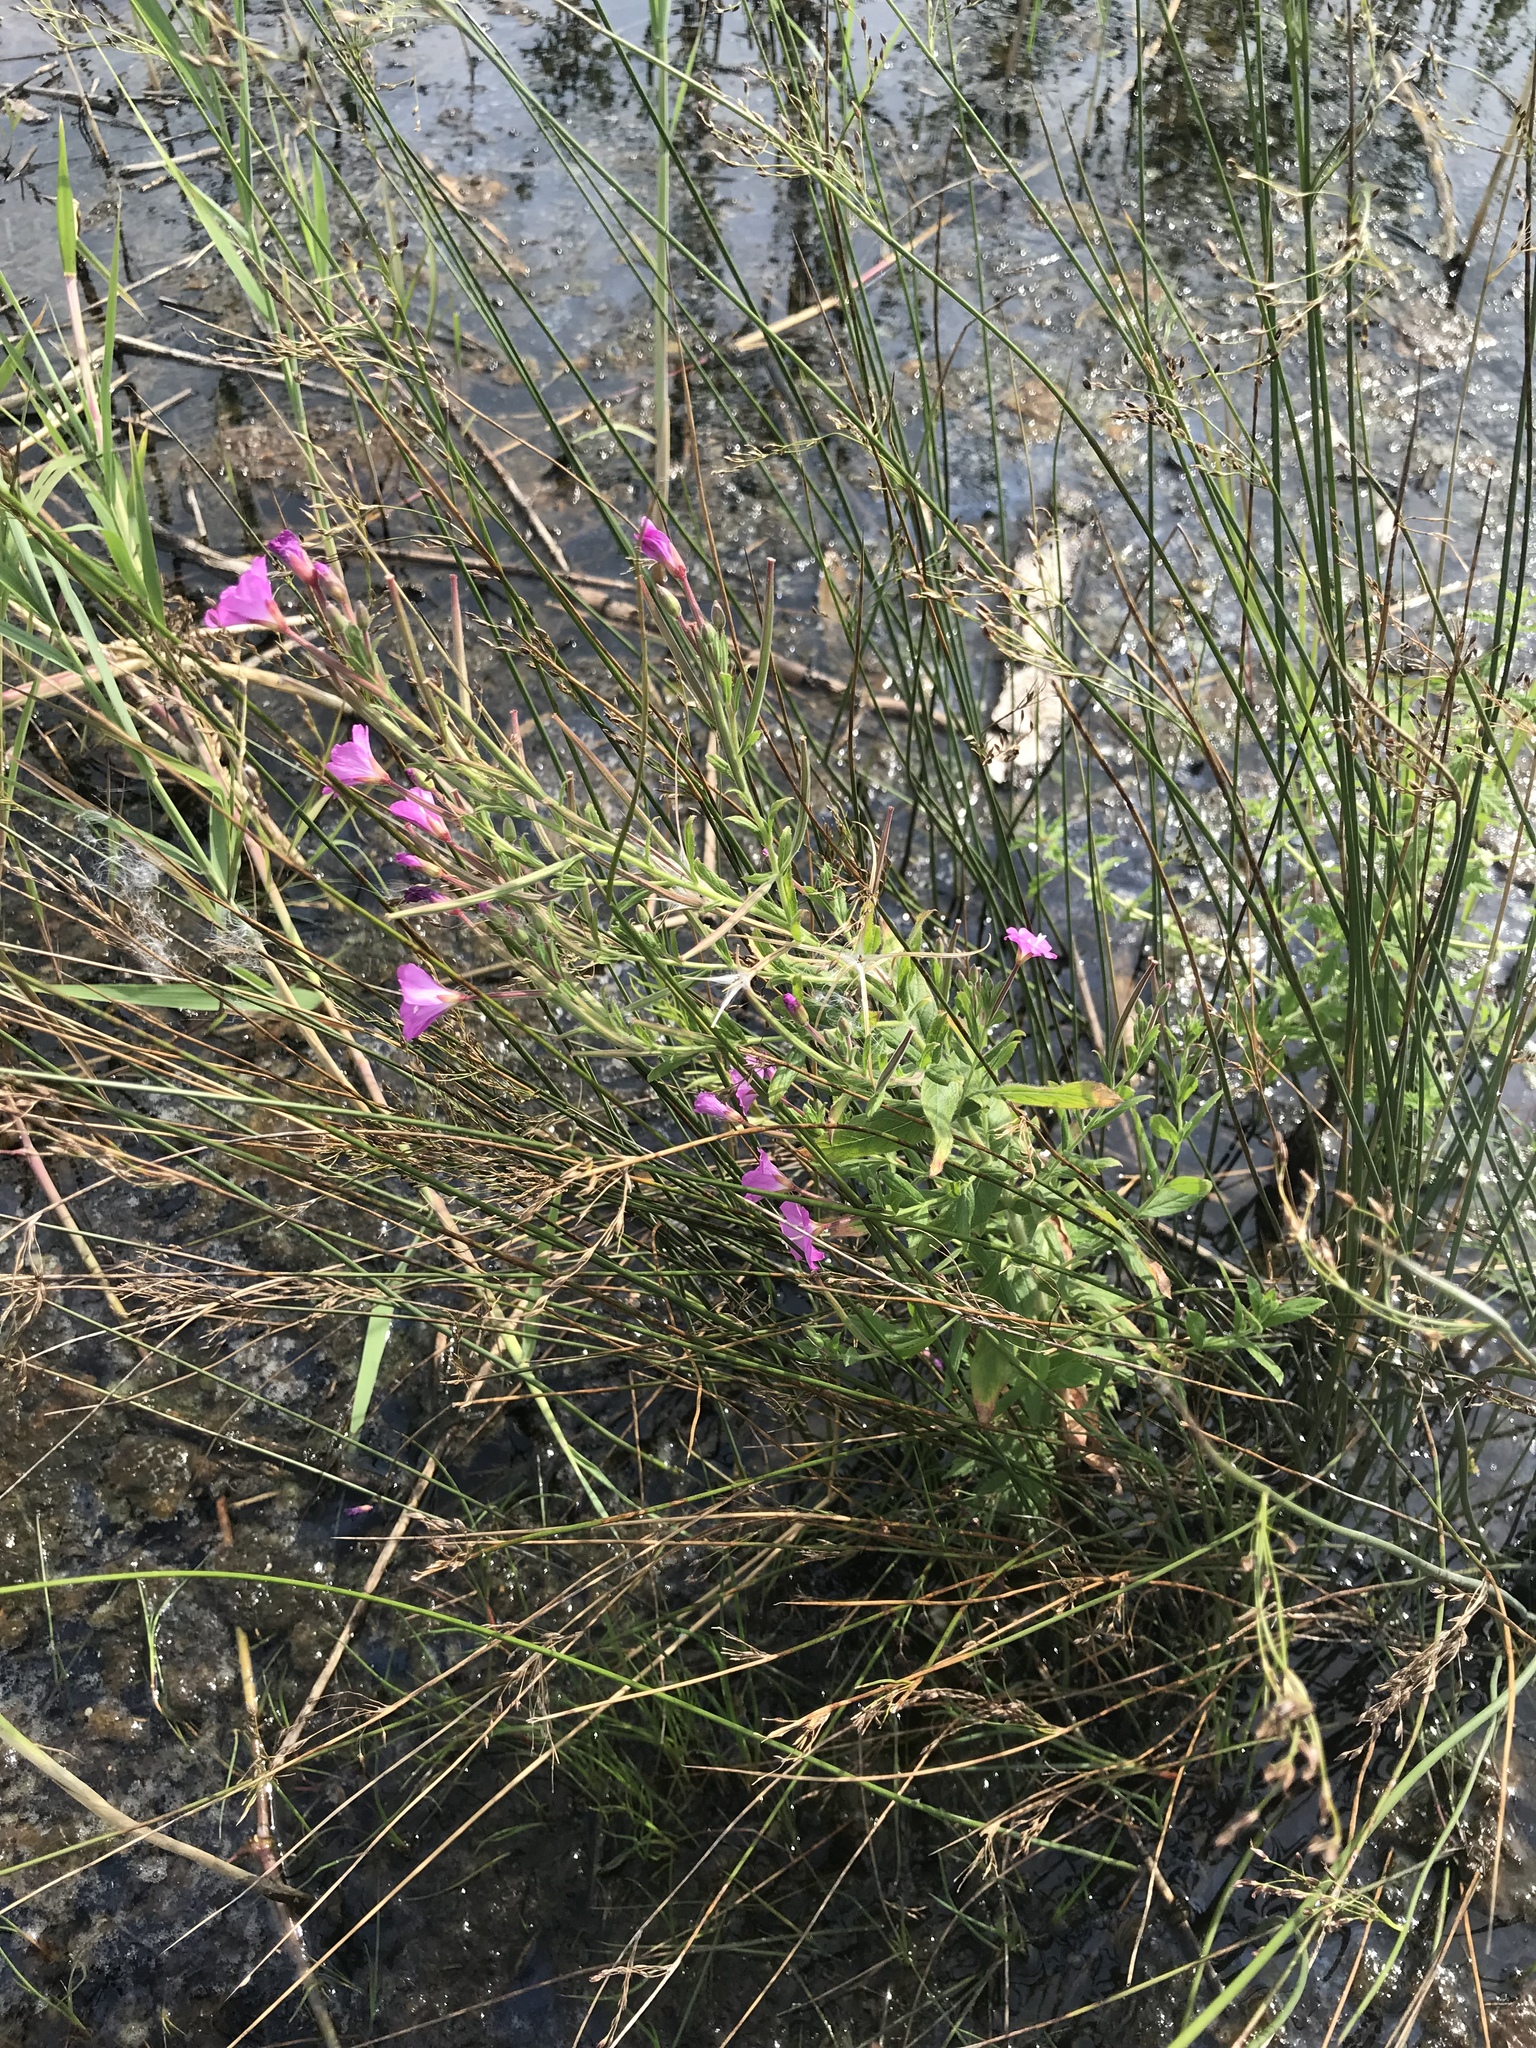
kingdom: Plantae
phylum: Tracheophyta
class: Magnoliopsida
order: Myrtales
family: Onagraceae
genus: Epilobium
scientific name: Epilobium hirsutum
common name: Great willowherb
